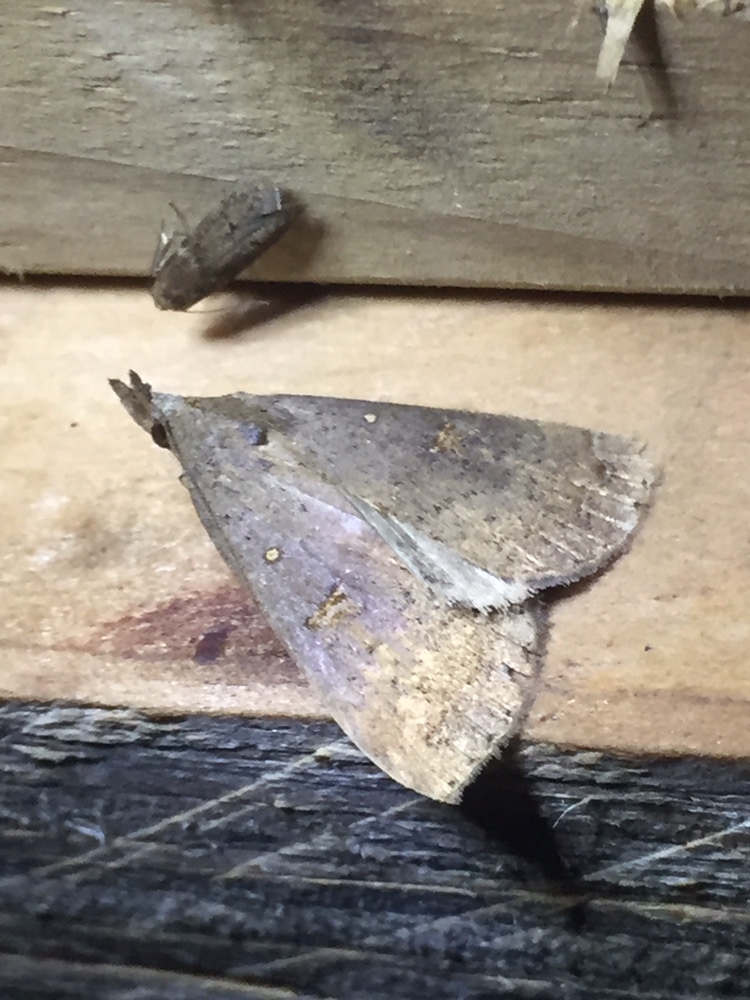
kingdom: Animalia
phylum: Arthropoda
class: Insecta
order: Lepidoptera
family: Erebidae
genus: Rhapsa
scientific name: Rhapsa scotosialis
